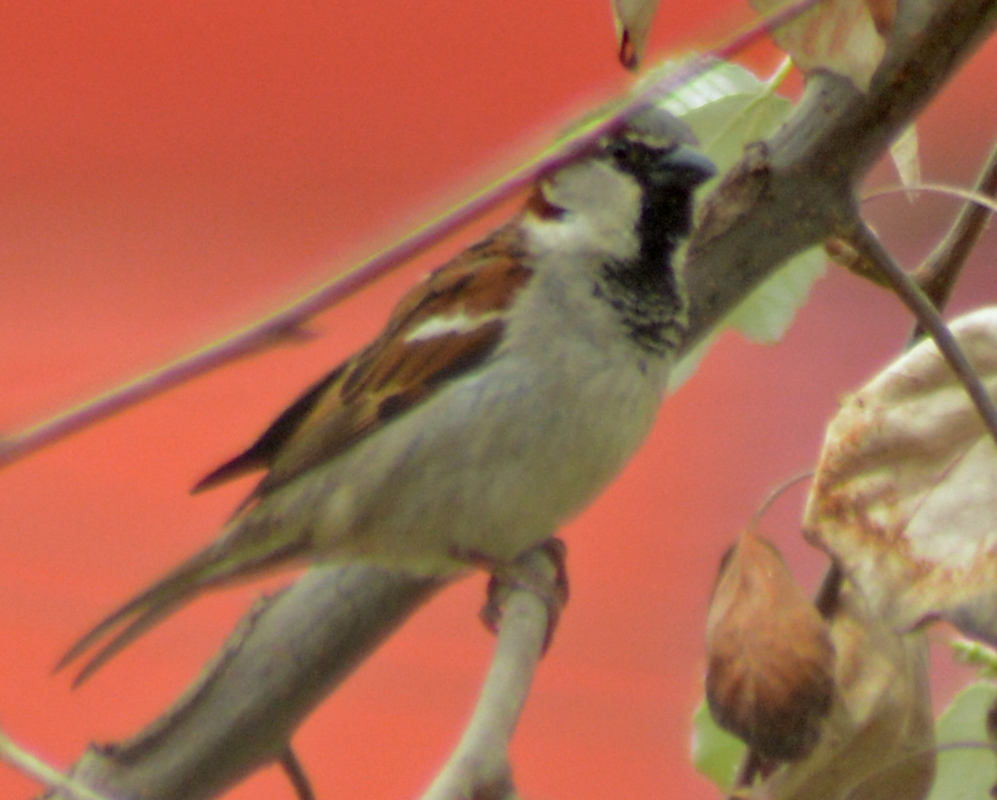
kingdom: Animalia
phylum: Chordata
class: Aves
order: Passeriformes
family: Passeridae
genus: Passer
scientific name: Passer domesticus
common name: House sparrow
